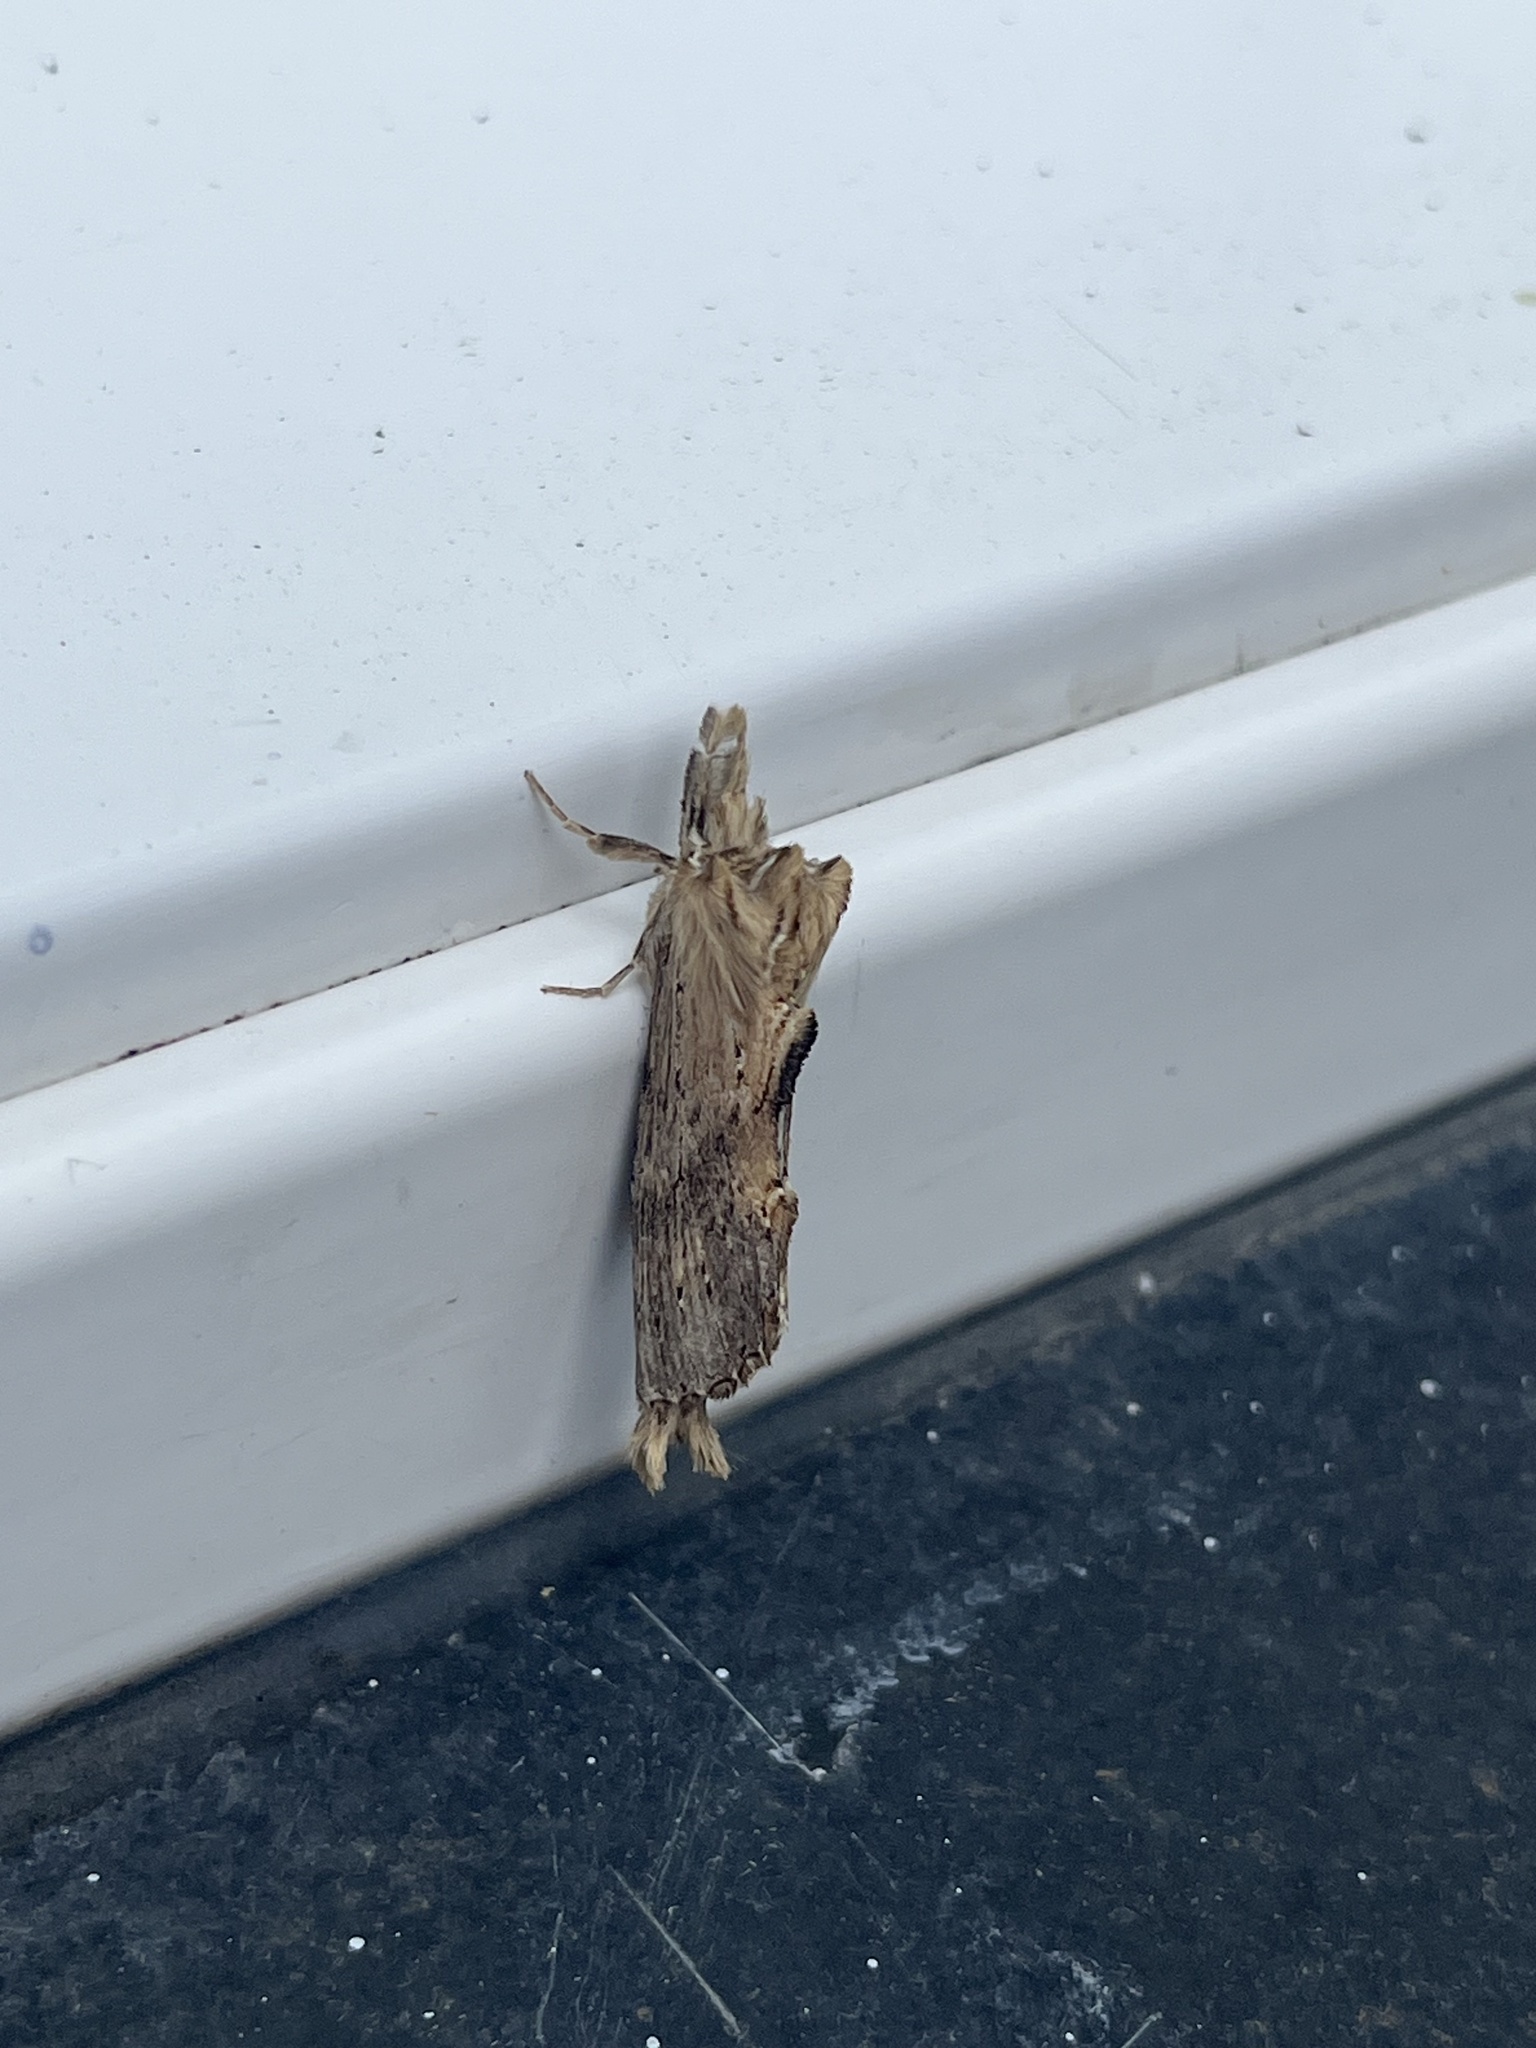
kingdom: Animalia
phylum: Arthropoda
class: Insecta
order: Lepidoptera
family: Notodontidae
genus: Pterostoma
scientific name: Pterostoma palpina
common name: Pale prominent
